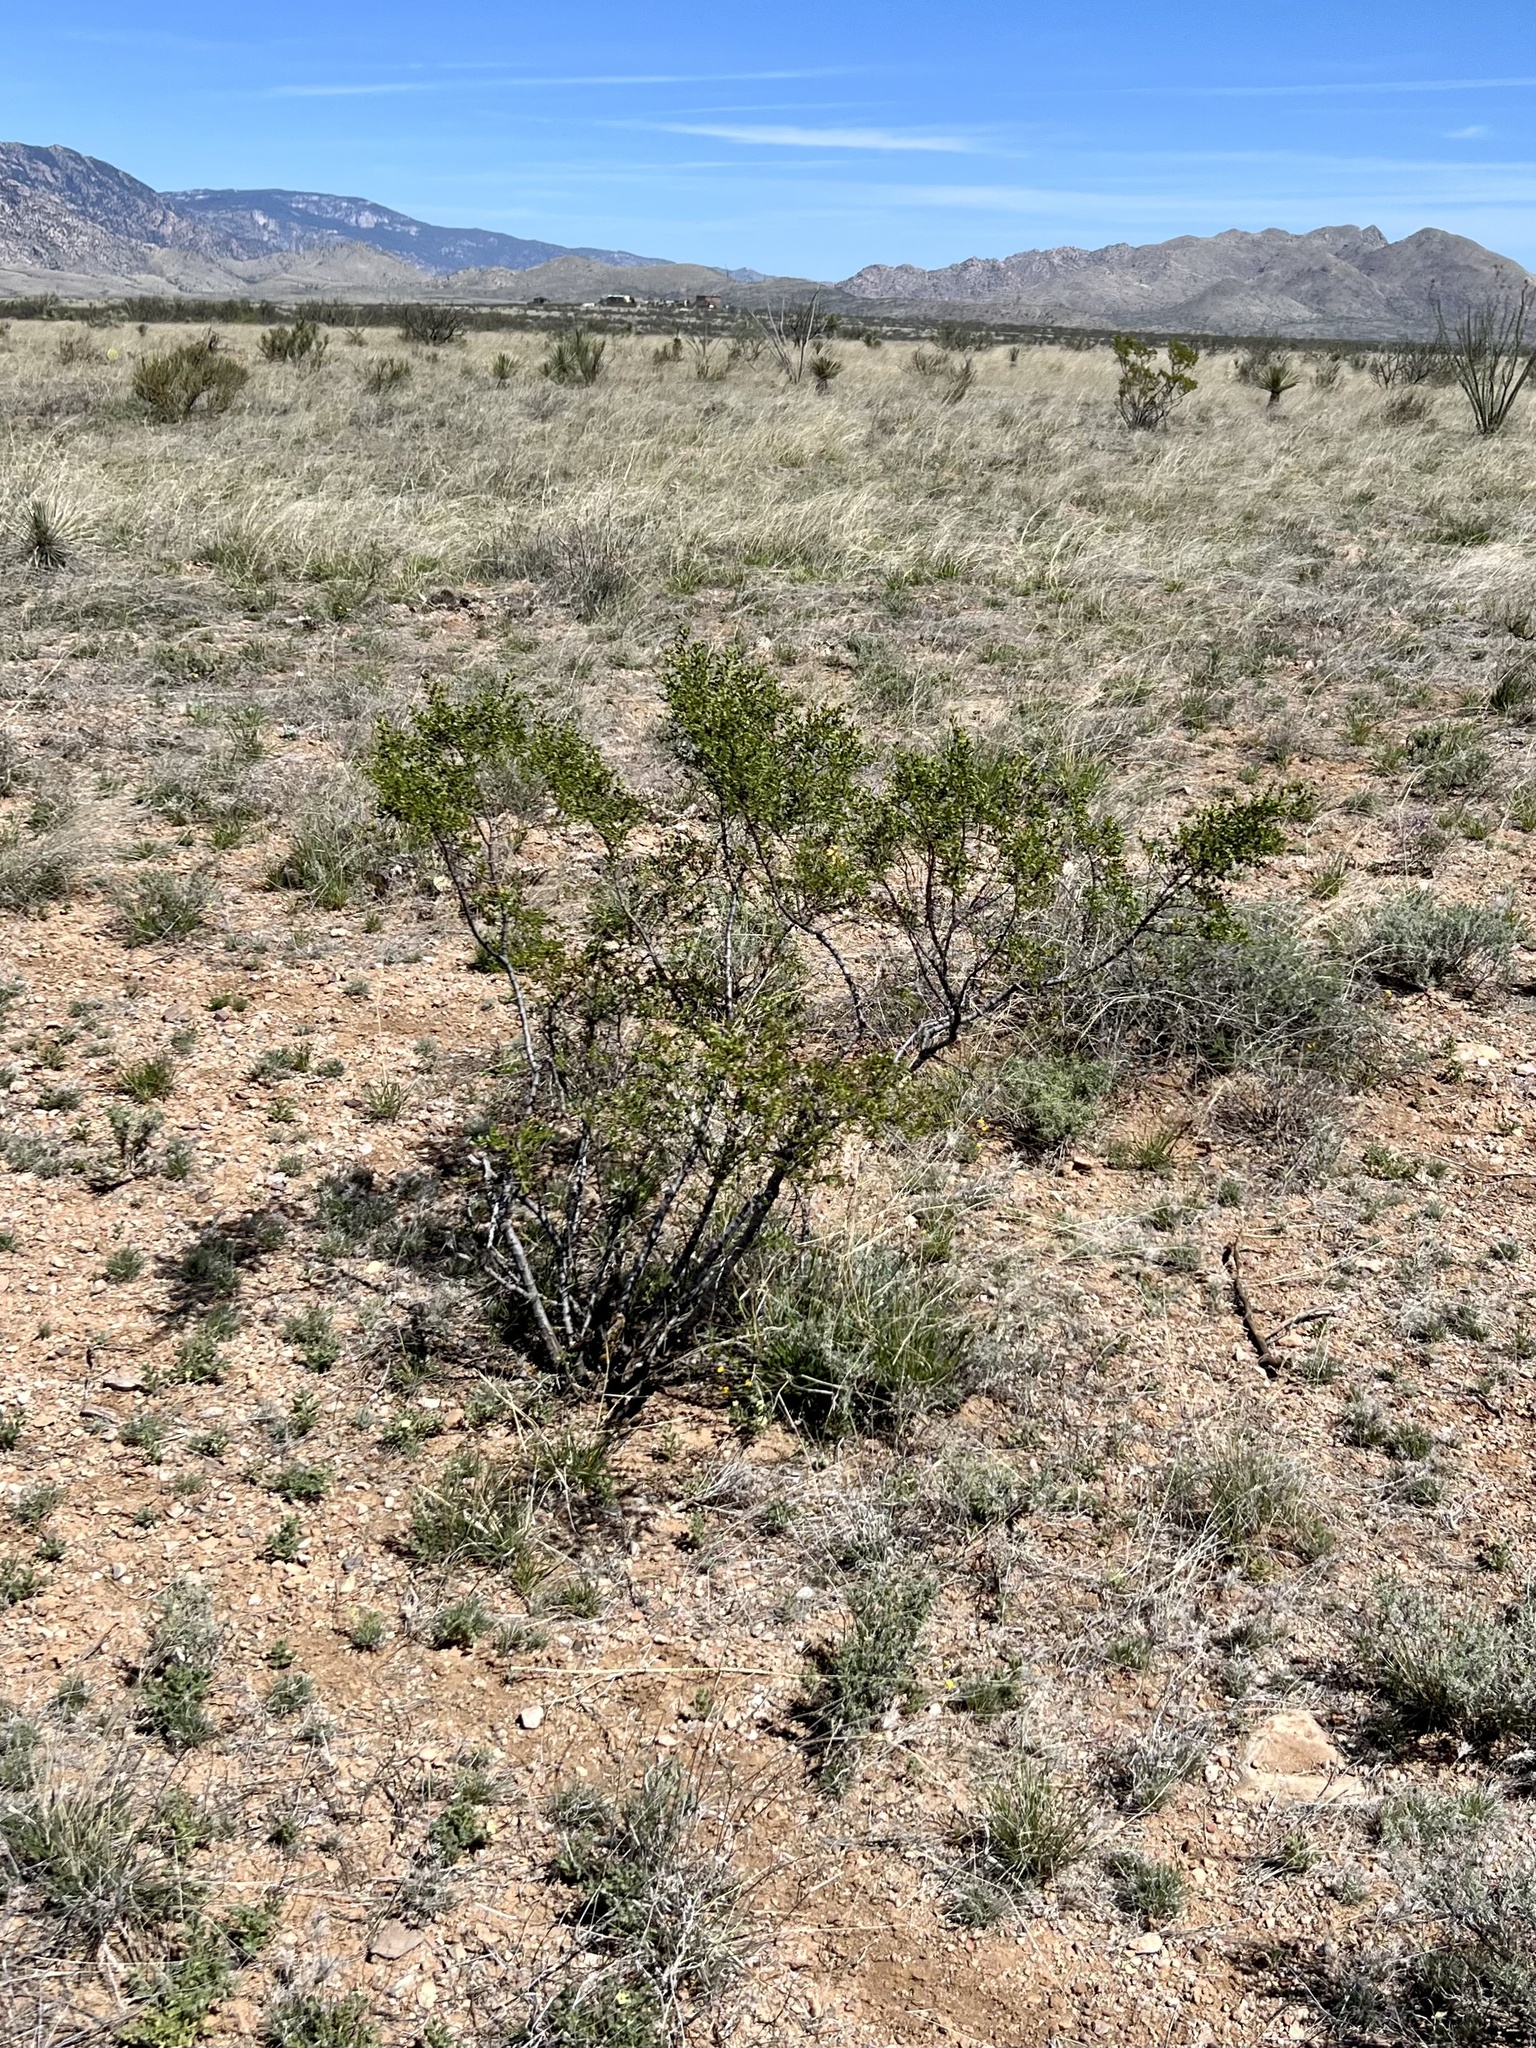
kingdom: Plantae
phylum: Tracheophyta
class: Magnoliopsida
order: Zygophyllales
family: Zygophyllaceae
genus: Larrea
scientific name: Larrea tridentata
